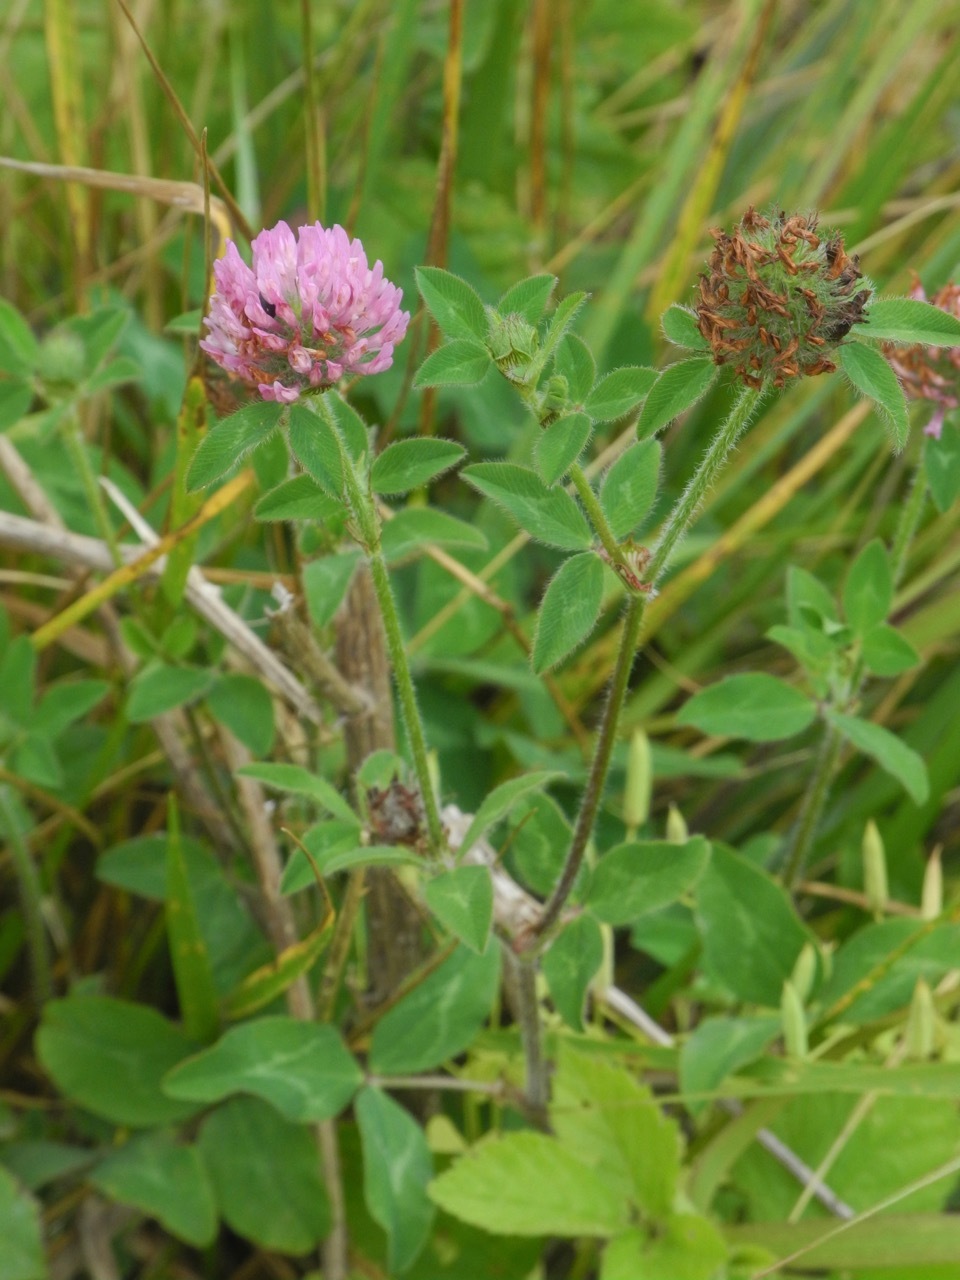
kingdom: Plantae
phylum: Tracheophyta
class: Magnoliopsida
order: Fabales
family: Fabaceae
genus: Trifolium
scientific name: Trifolium pratense
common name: Red clover
